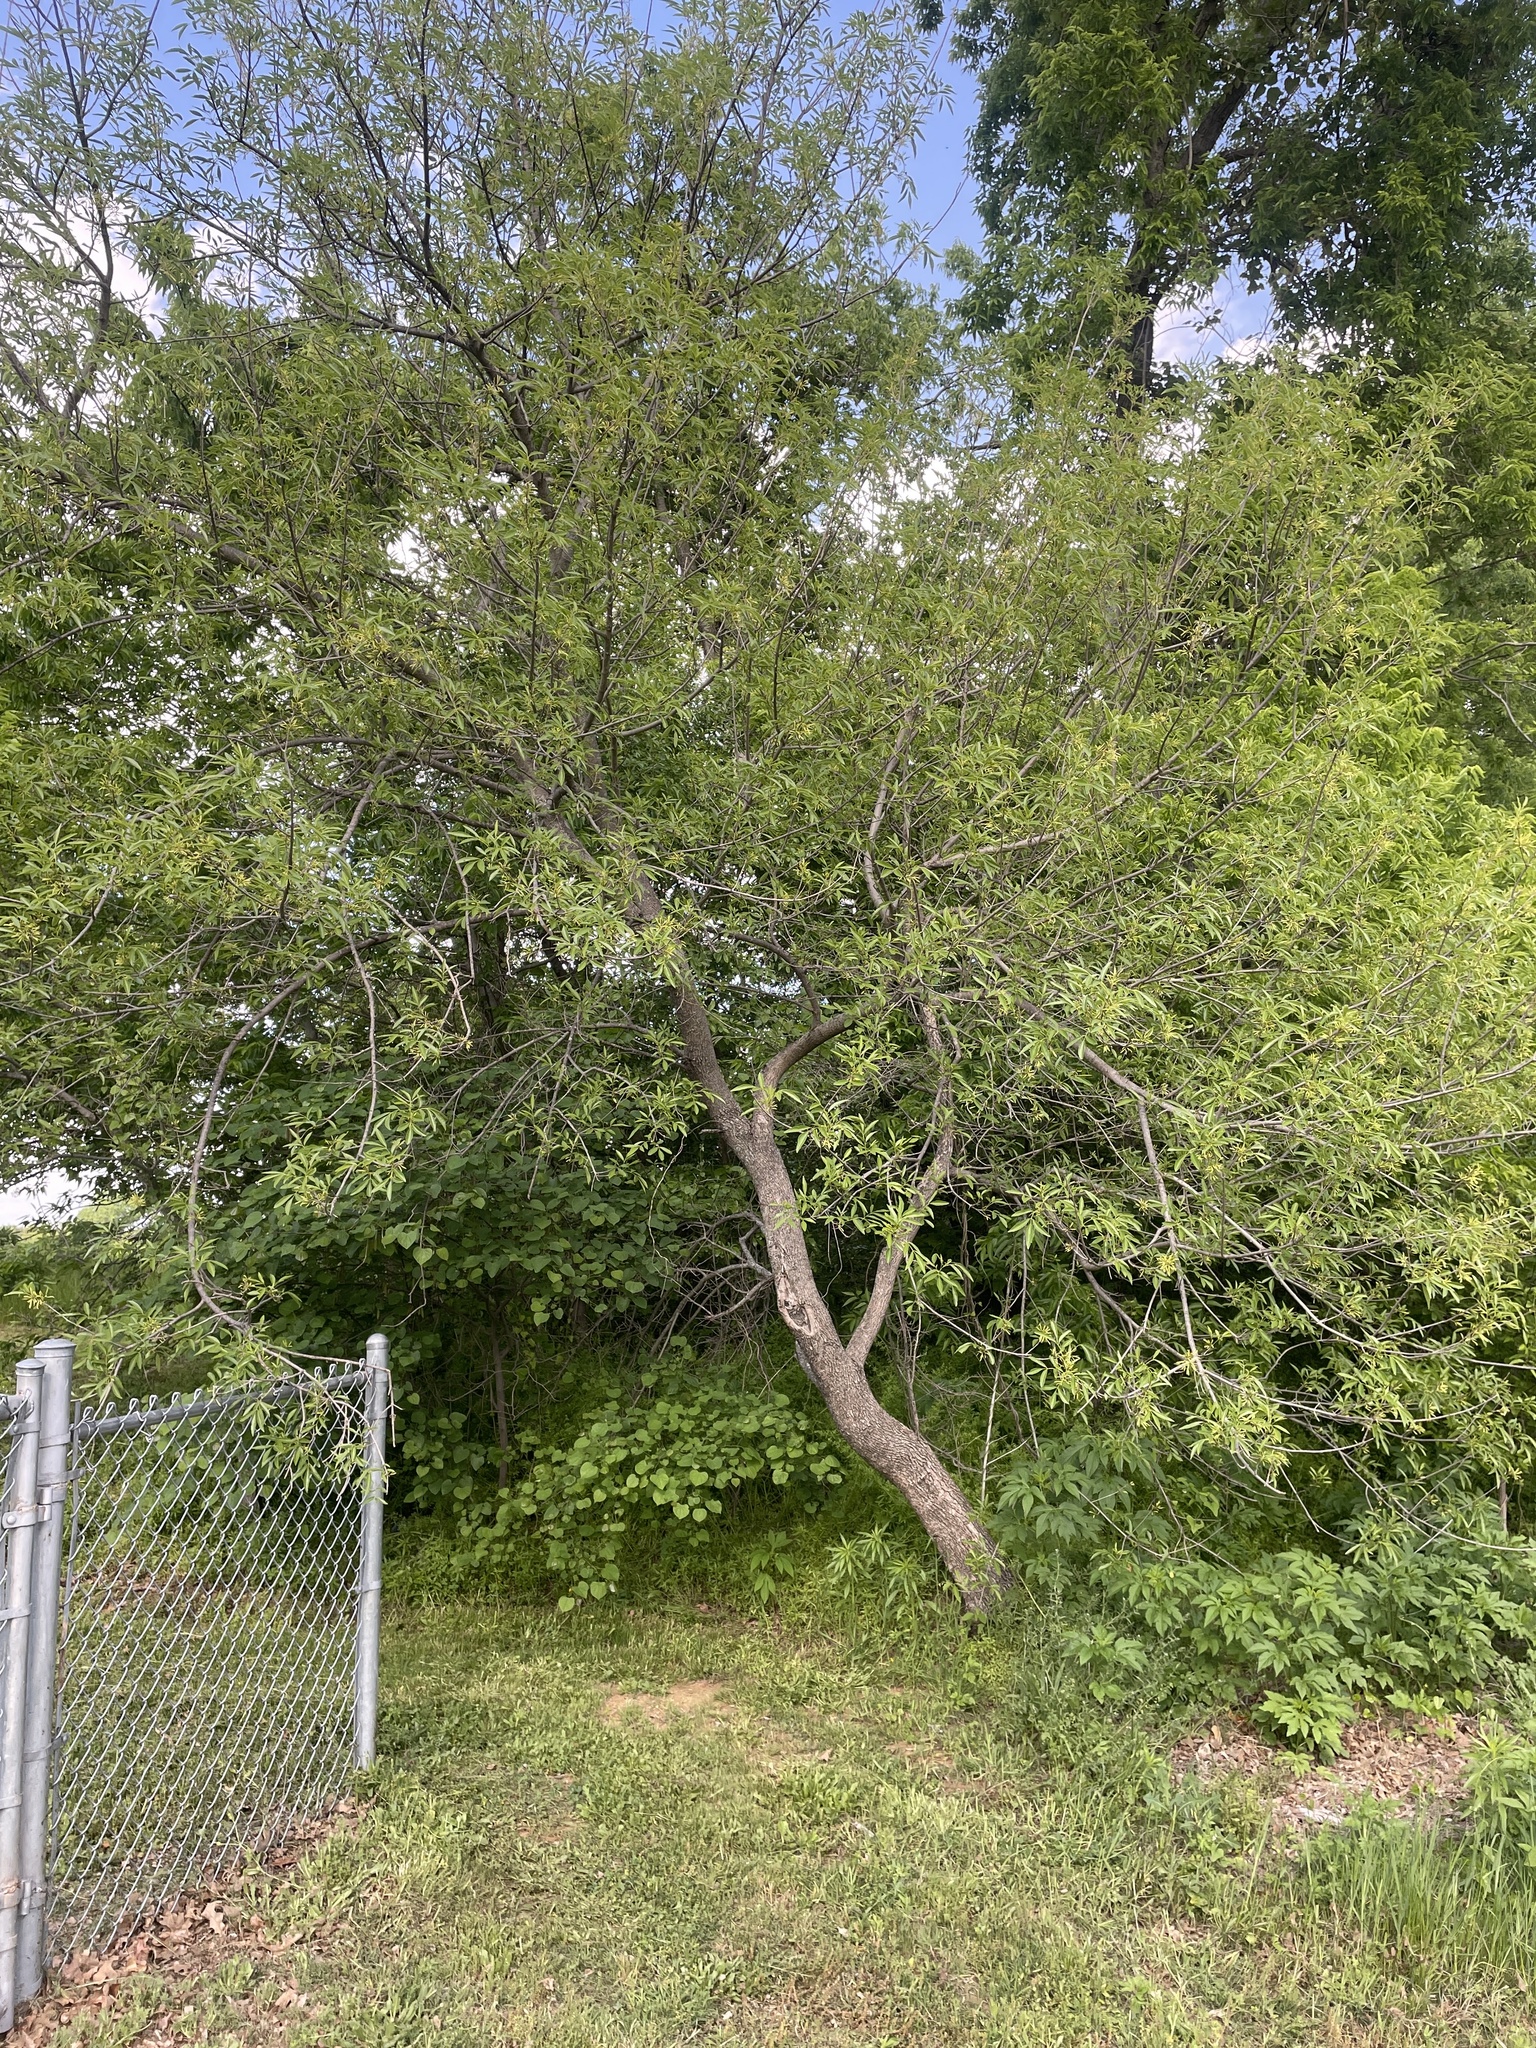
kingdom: Plantae
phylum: Tracheophyta
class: Magnoliopsida
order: Lamiales
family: Oleaceae
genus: Fraxinus
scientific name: Fraxinus pennsylvanica
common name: Green ash
